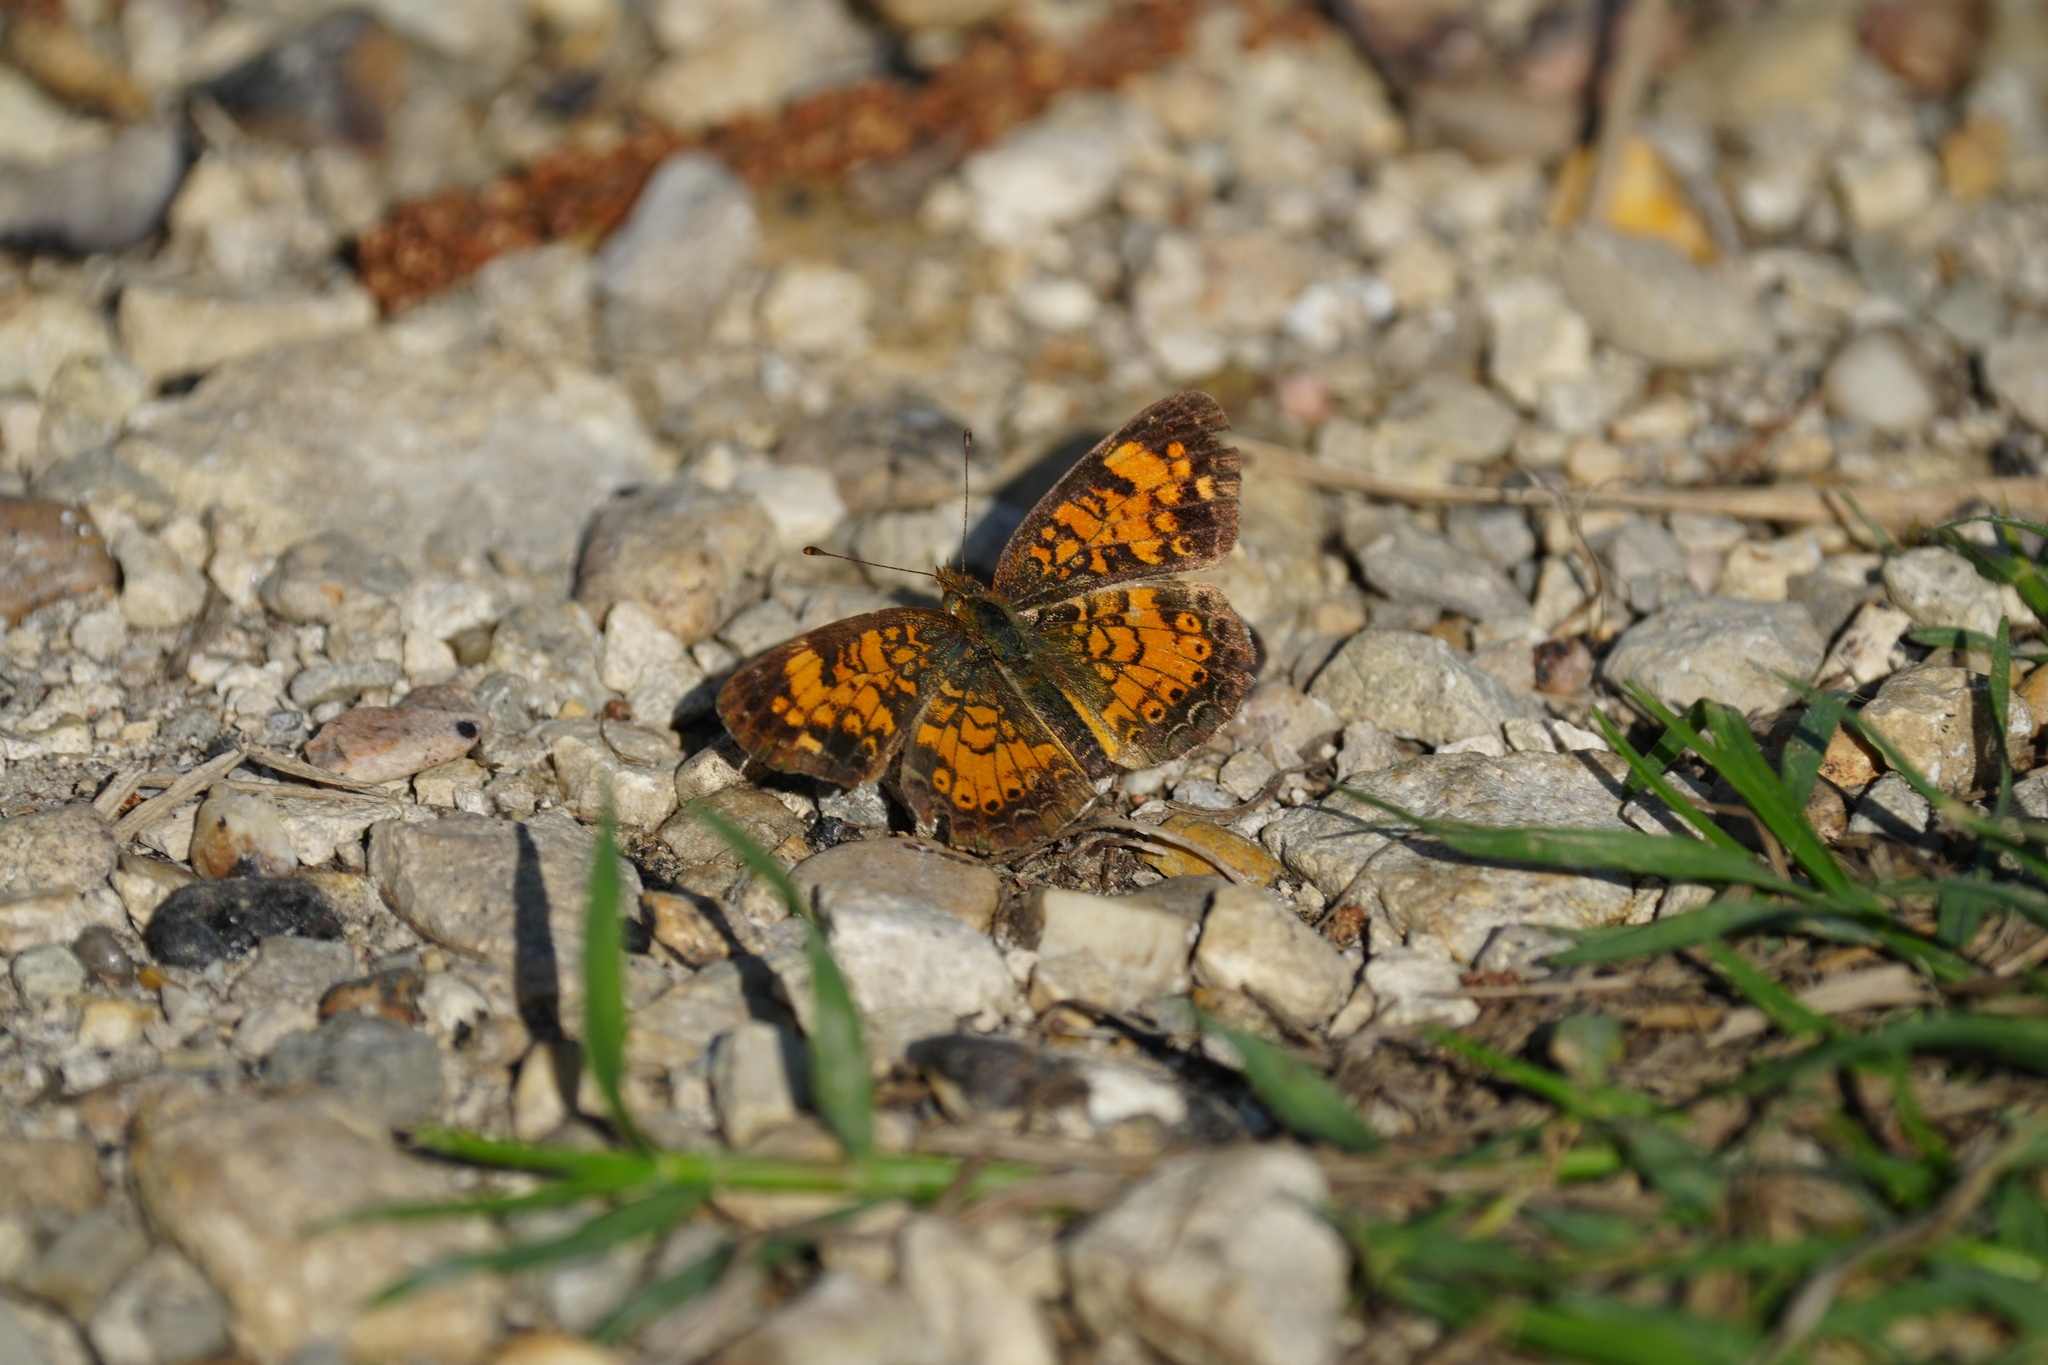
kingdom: Animalia
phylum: Arthropoda
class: Insecta
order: Lepidoptera
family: Nymphalidae
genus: Phyciodes
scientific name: Phyciodes tharos
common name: Pearl crescent
